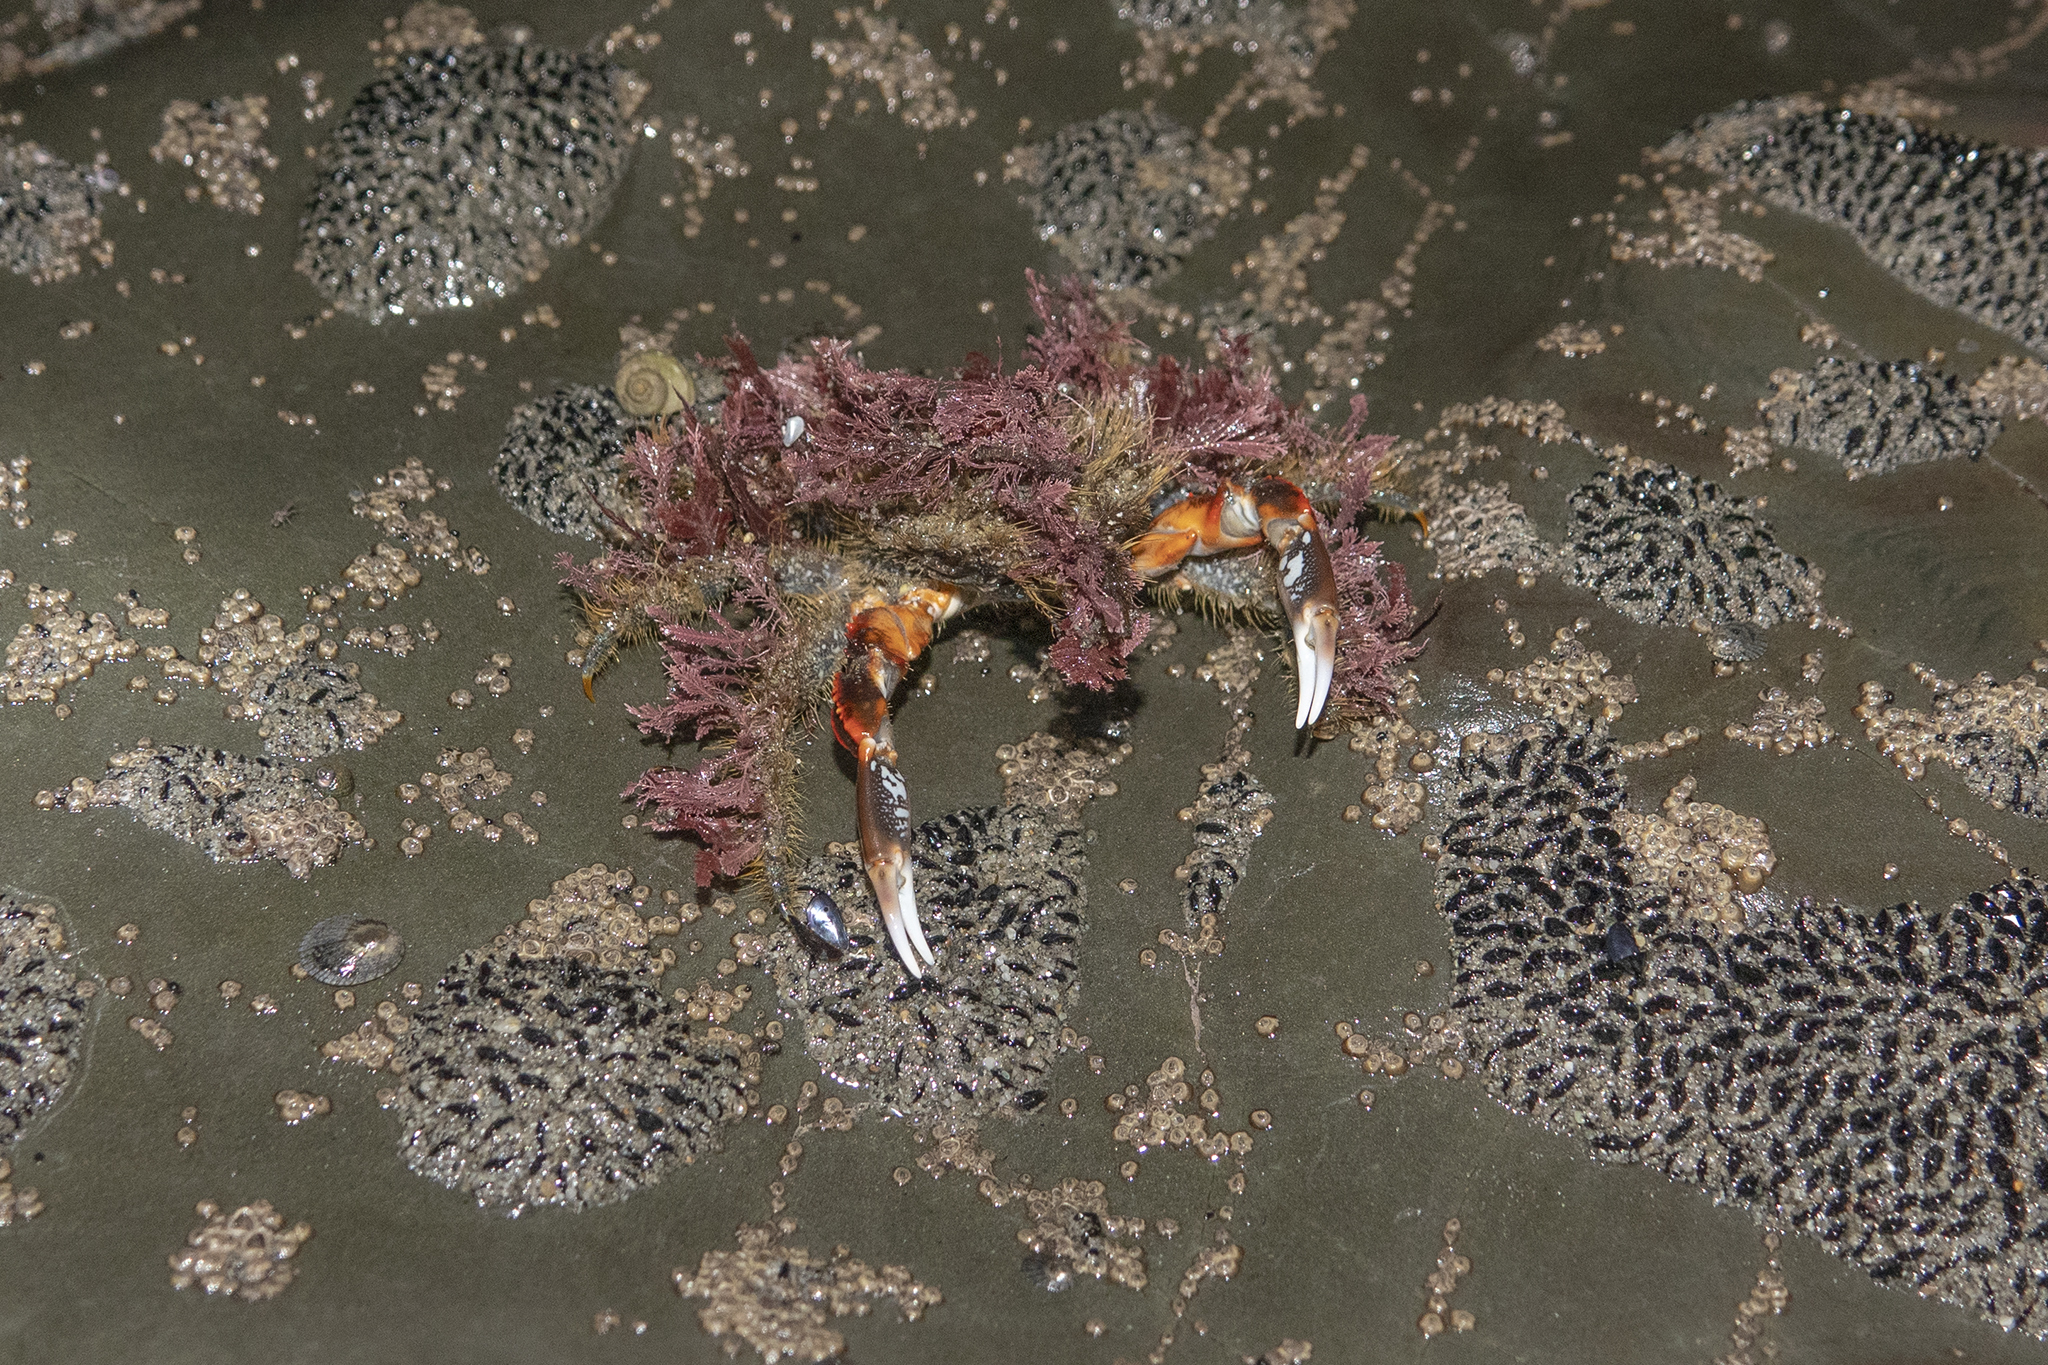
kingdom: Animalia
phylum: Arthropoda
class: Malacostraca
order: Decapoda
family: Majidae
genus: Notomithrax
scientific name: Notomithrax ursus
